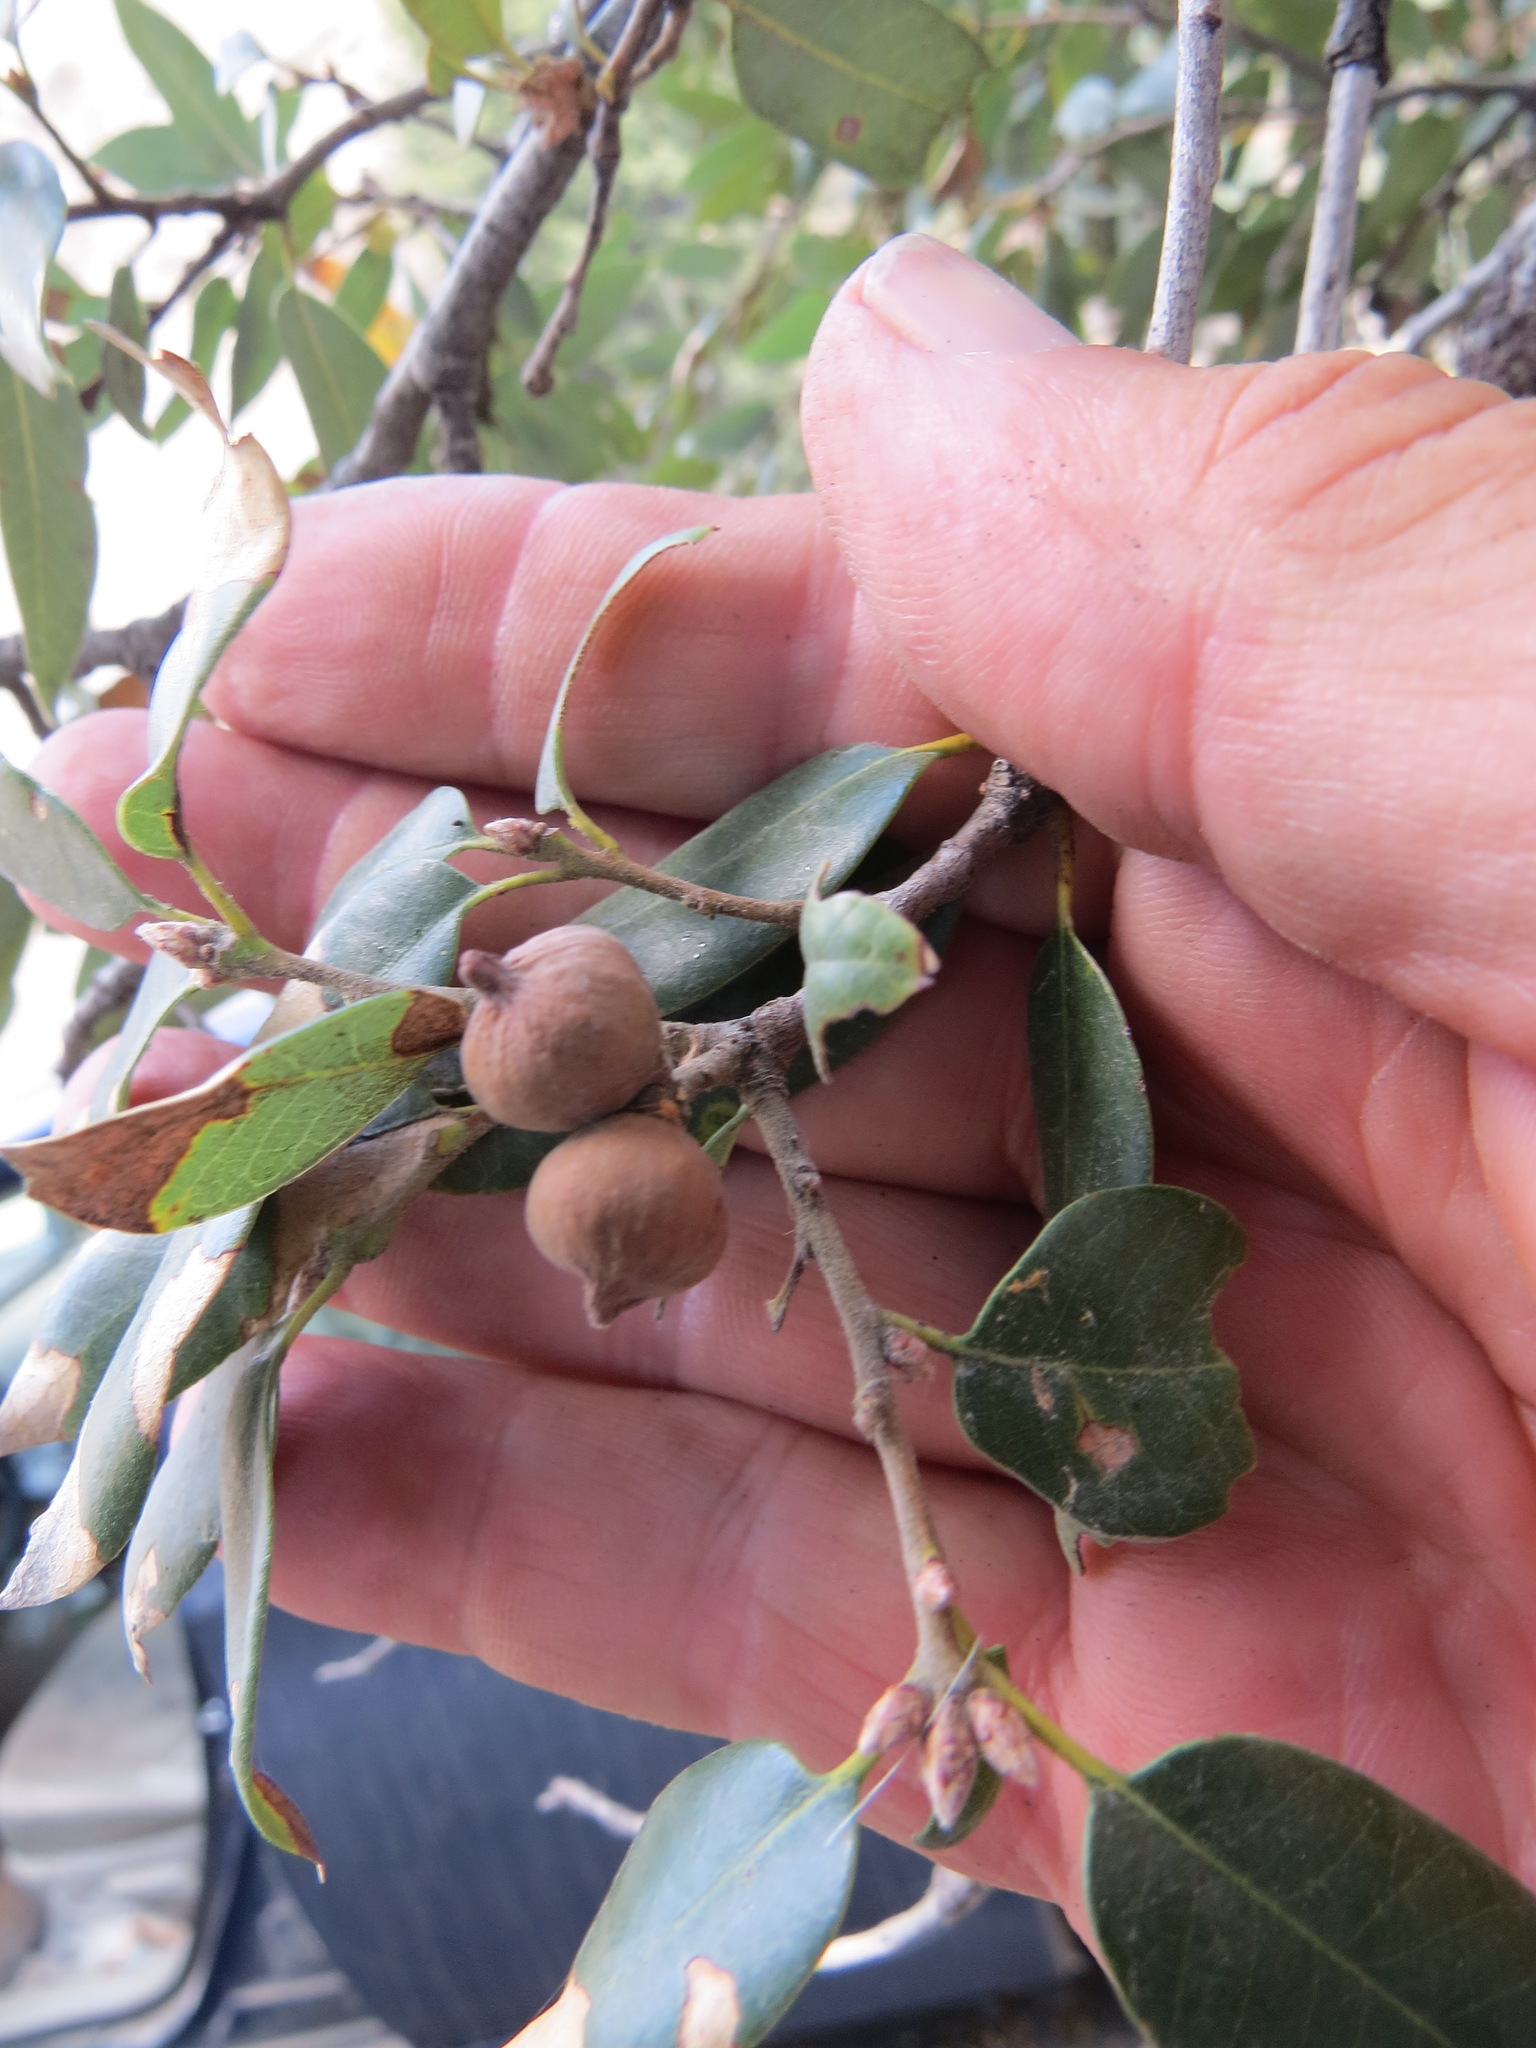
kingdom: Animalia
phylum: Arthropoda
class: Insecta
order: Hymenoptera
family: Cynipidae
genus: Heteroecus
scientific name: Heteroecus
